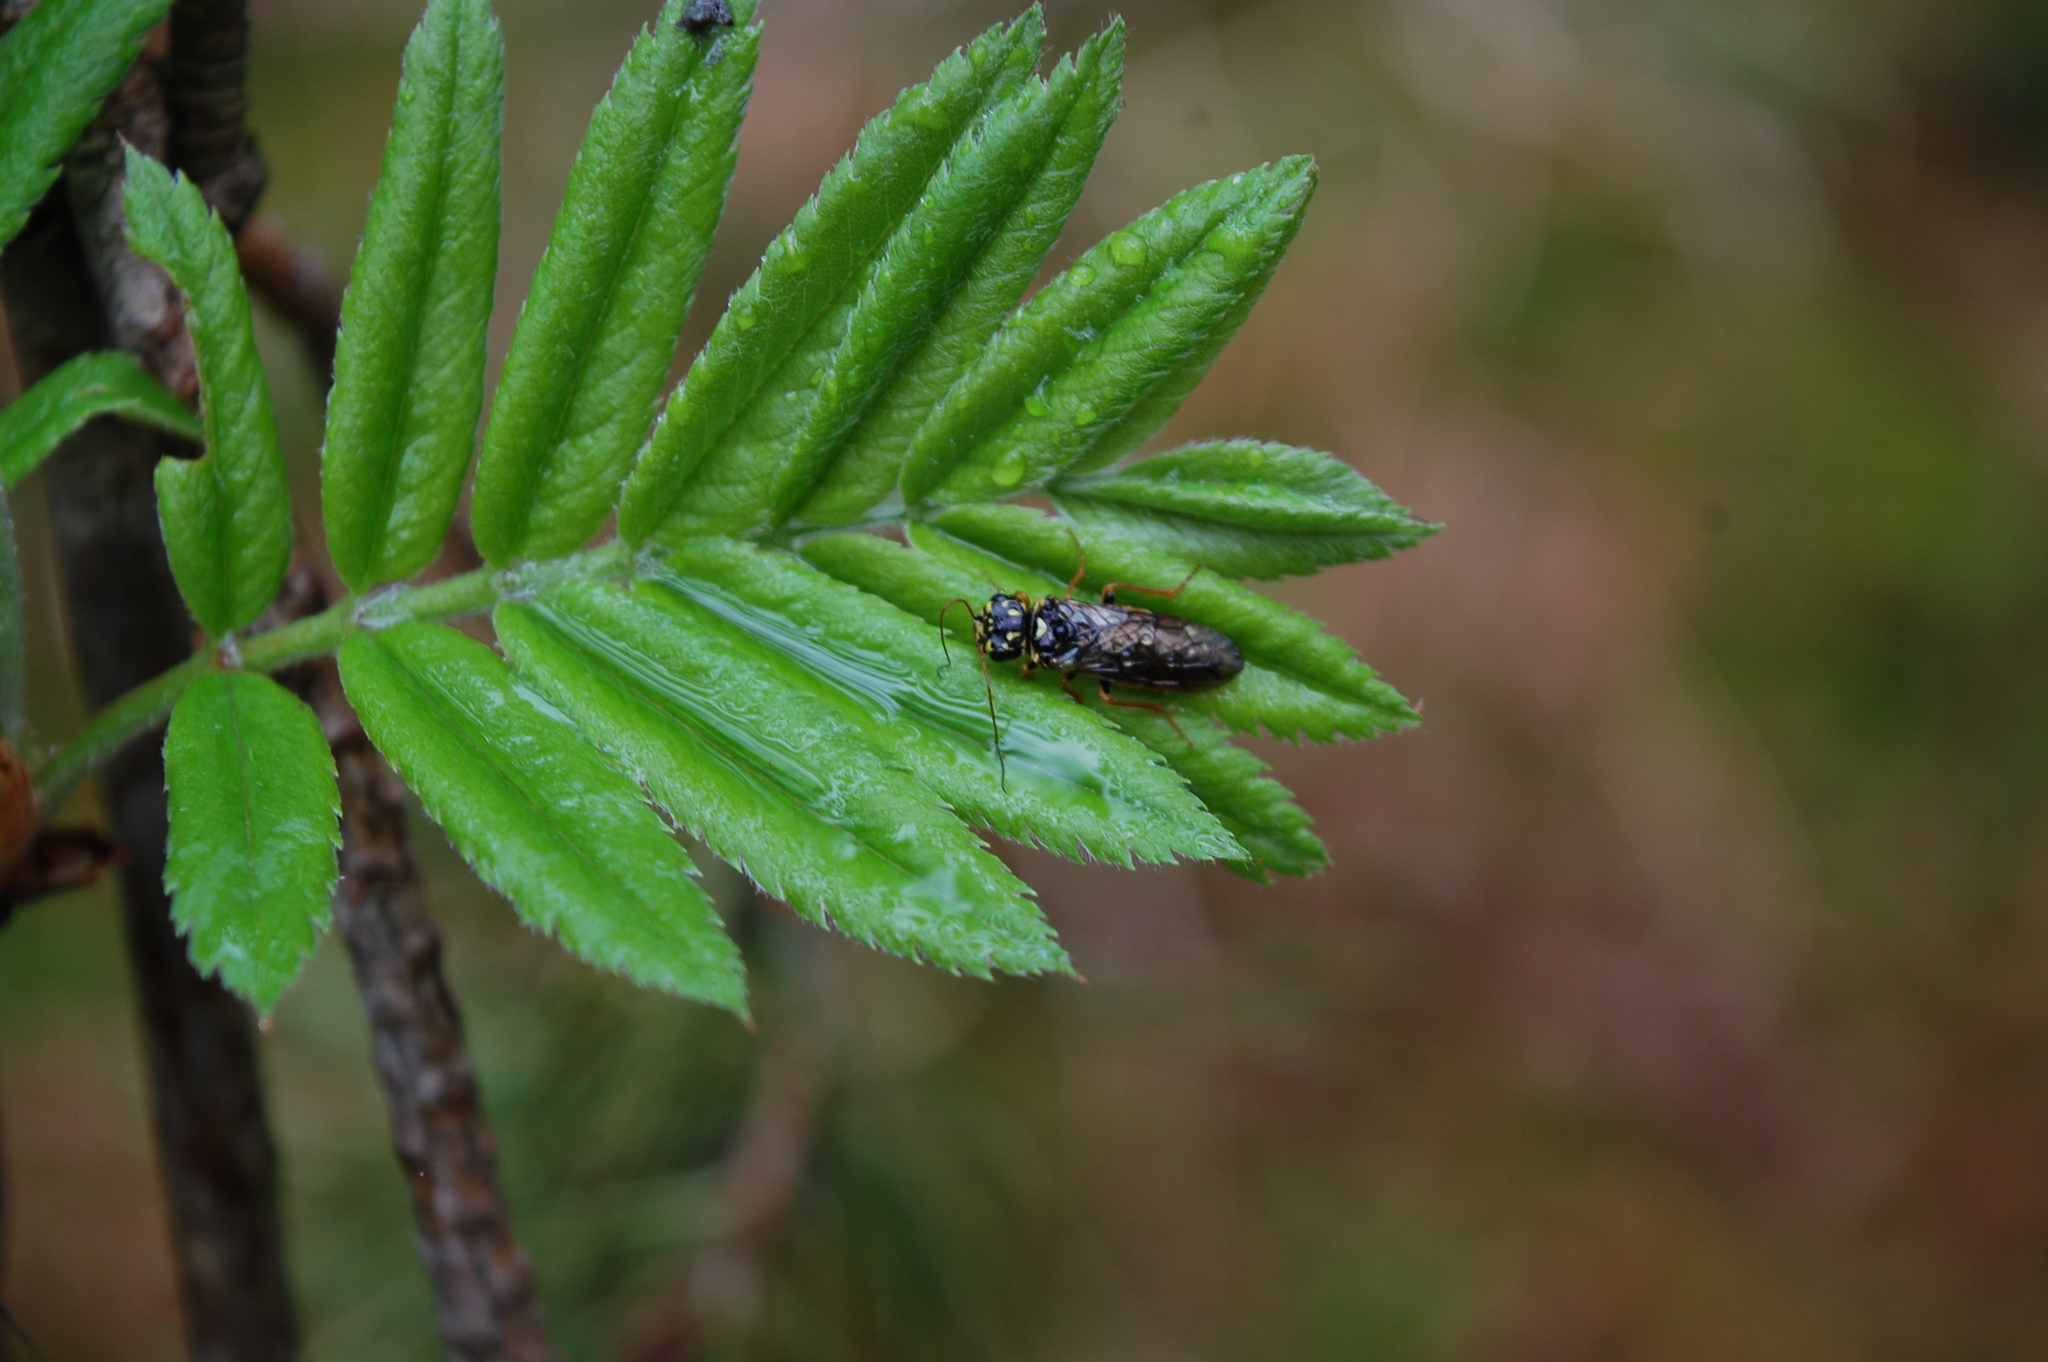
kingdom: Plantae
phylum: Tracheophyta
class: Magnoliopsida
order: Rosales
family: Rosaceae
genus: Sorbus
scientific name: Sorbus aucuparia
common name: Rowan
